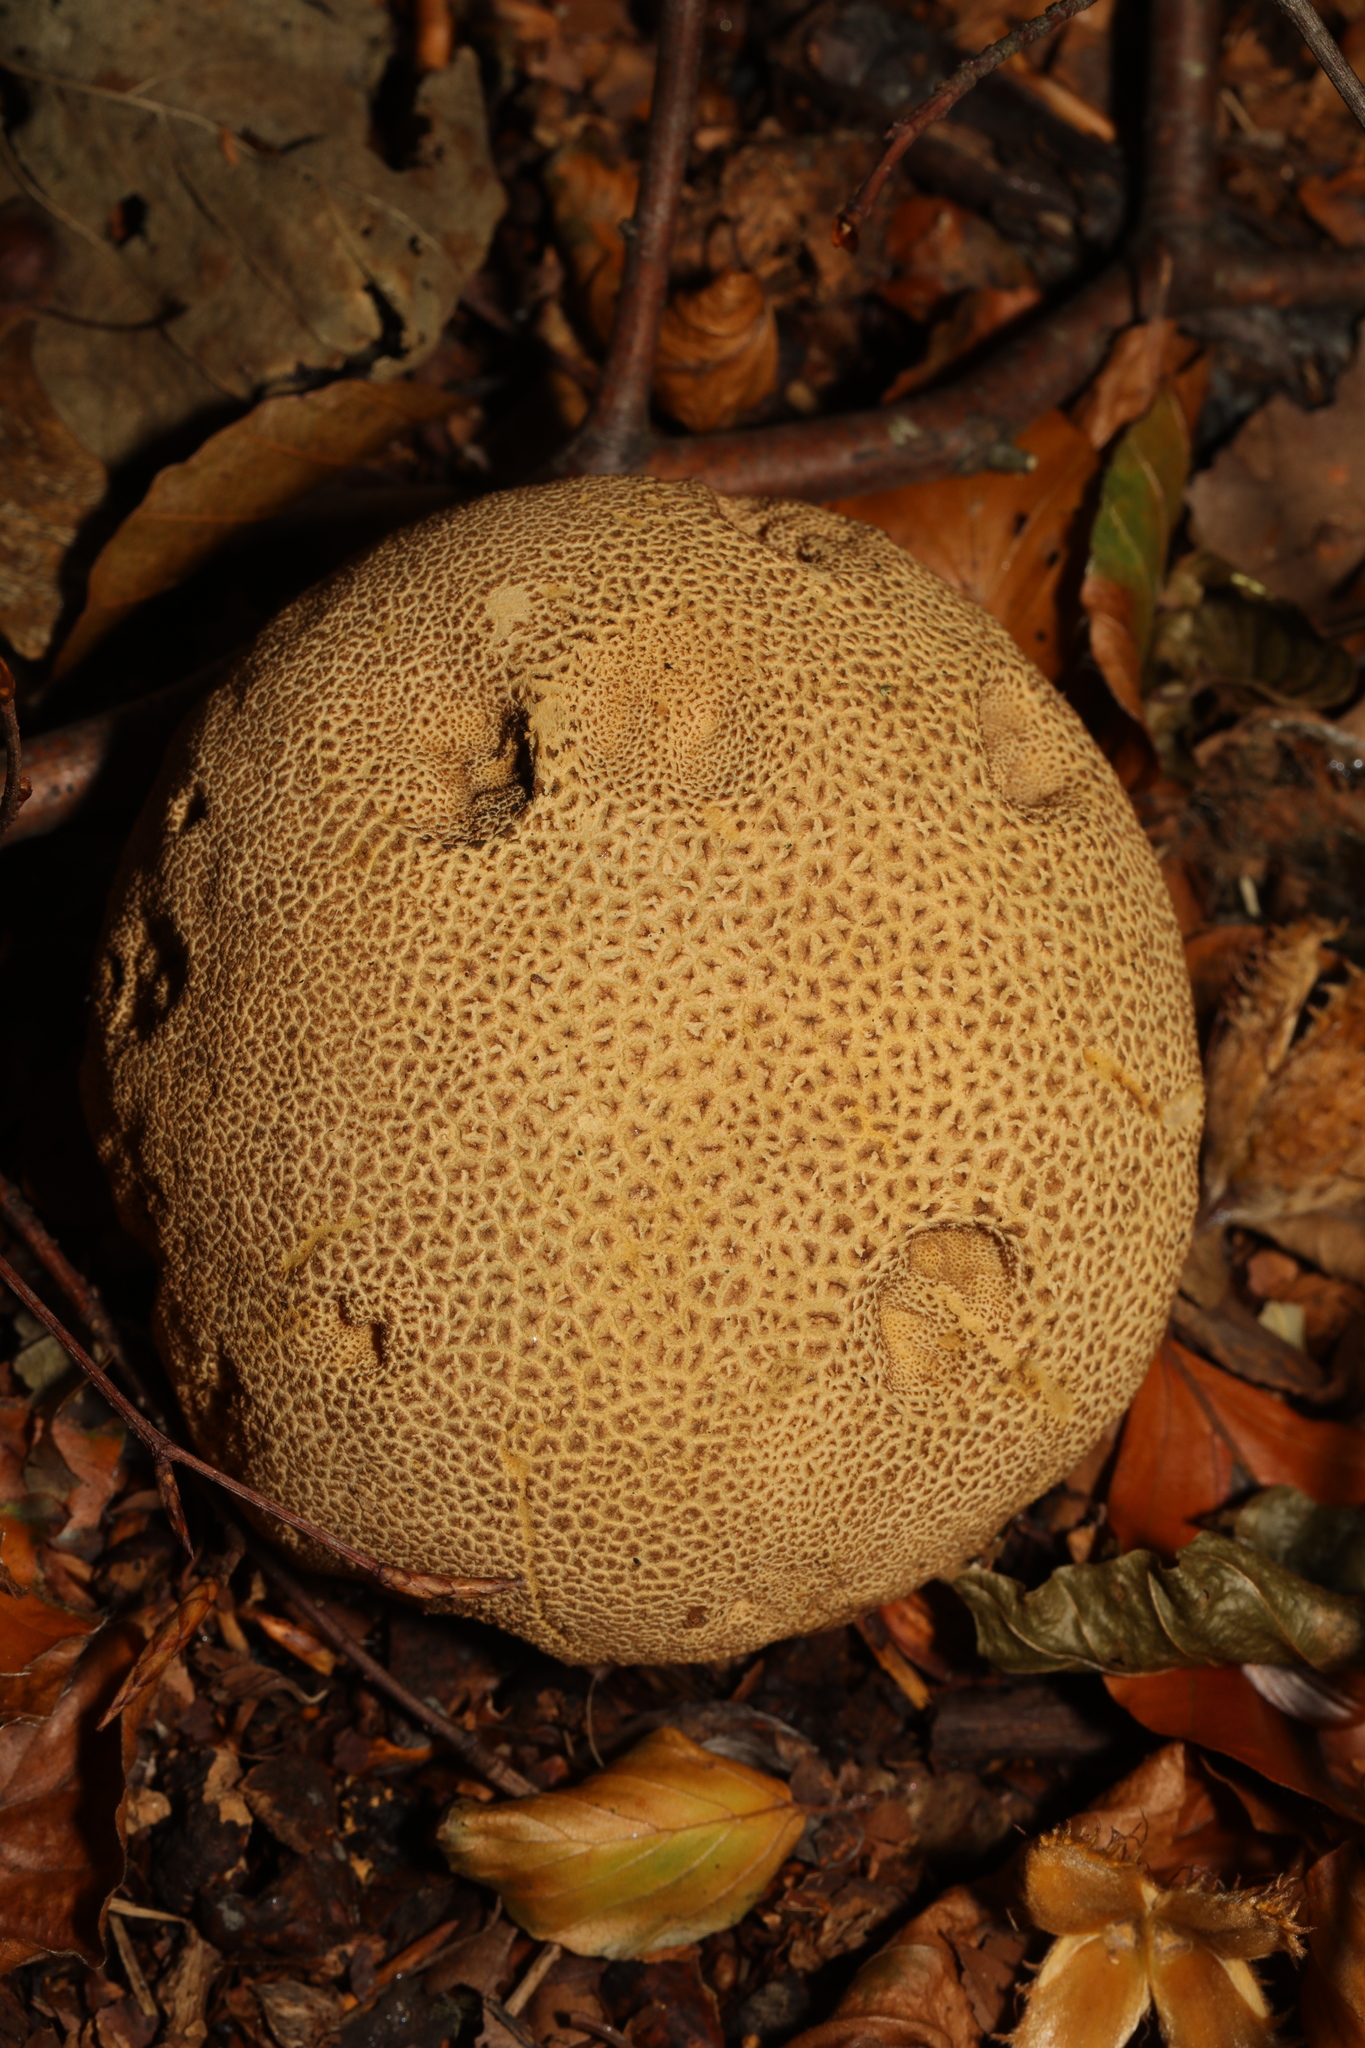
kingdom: Fungi
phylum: Basidiomycota
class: Agaricomycetes
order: Boletales
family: Sclerodermataceae
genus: Scleroderma
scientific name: Scleroderma citrinum
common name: Common earthball
